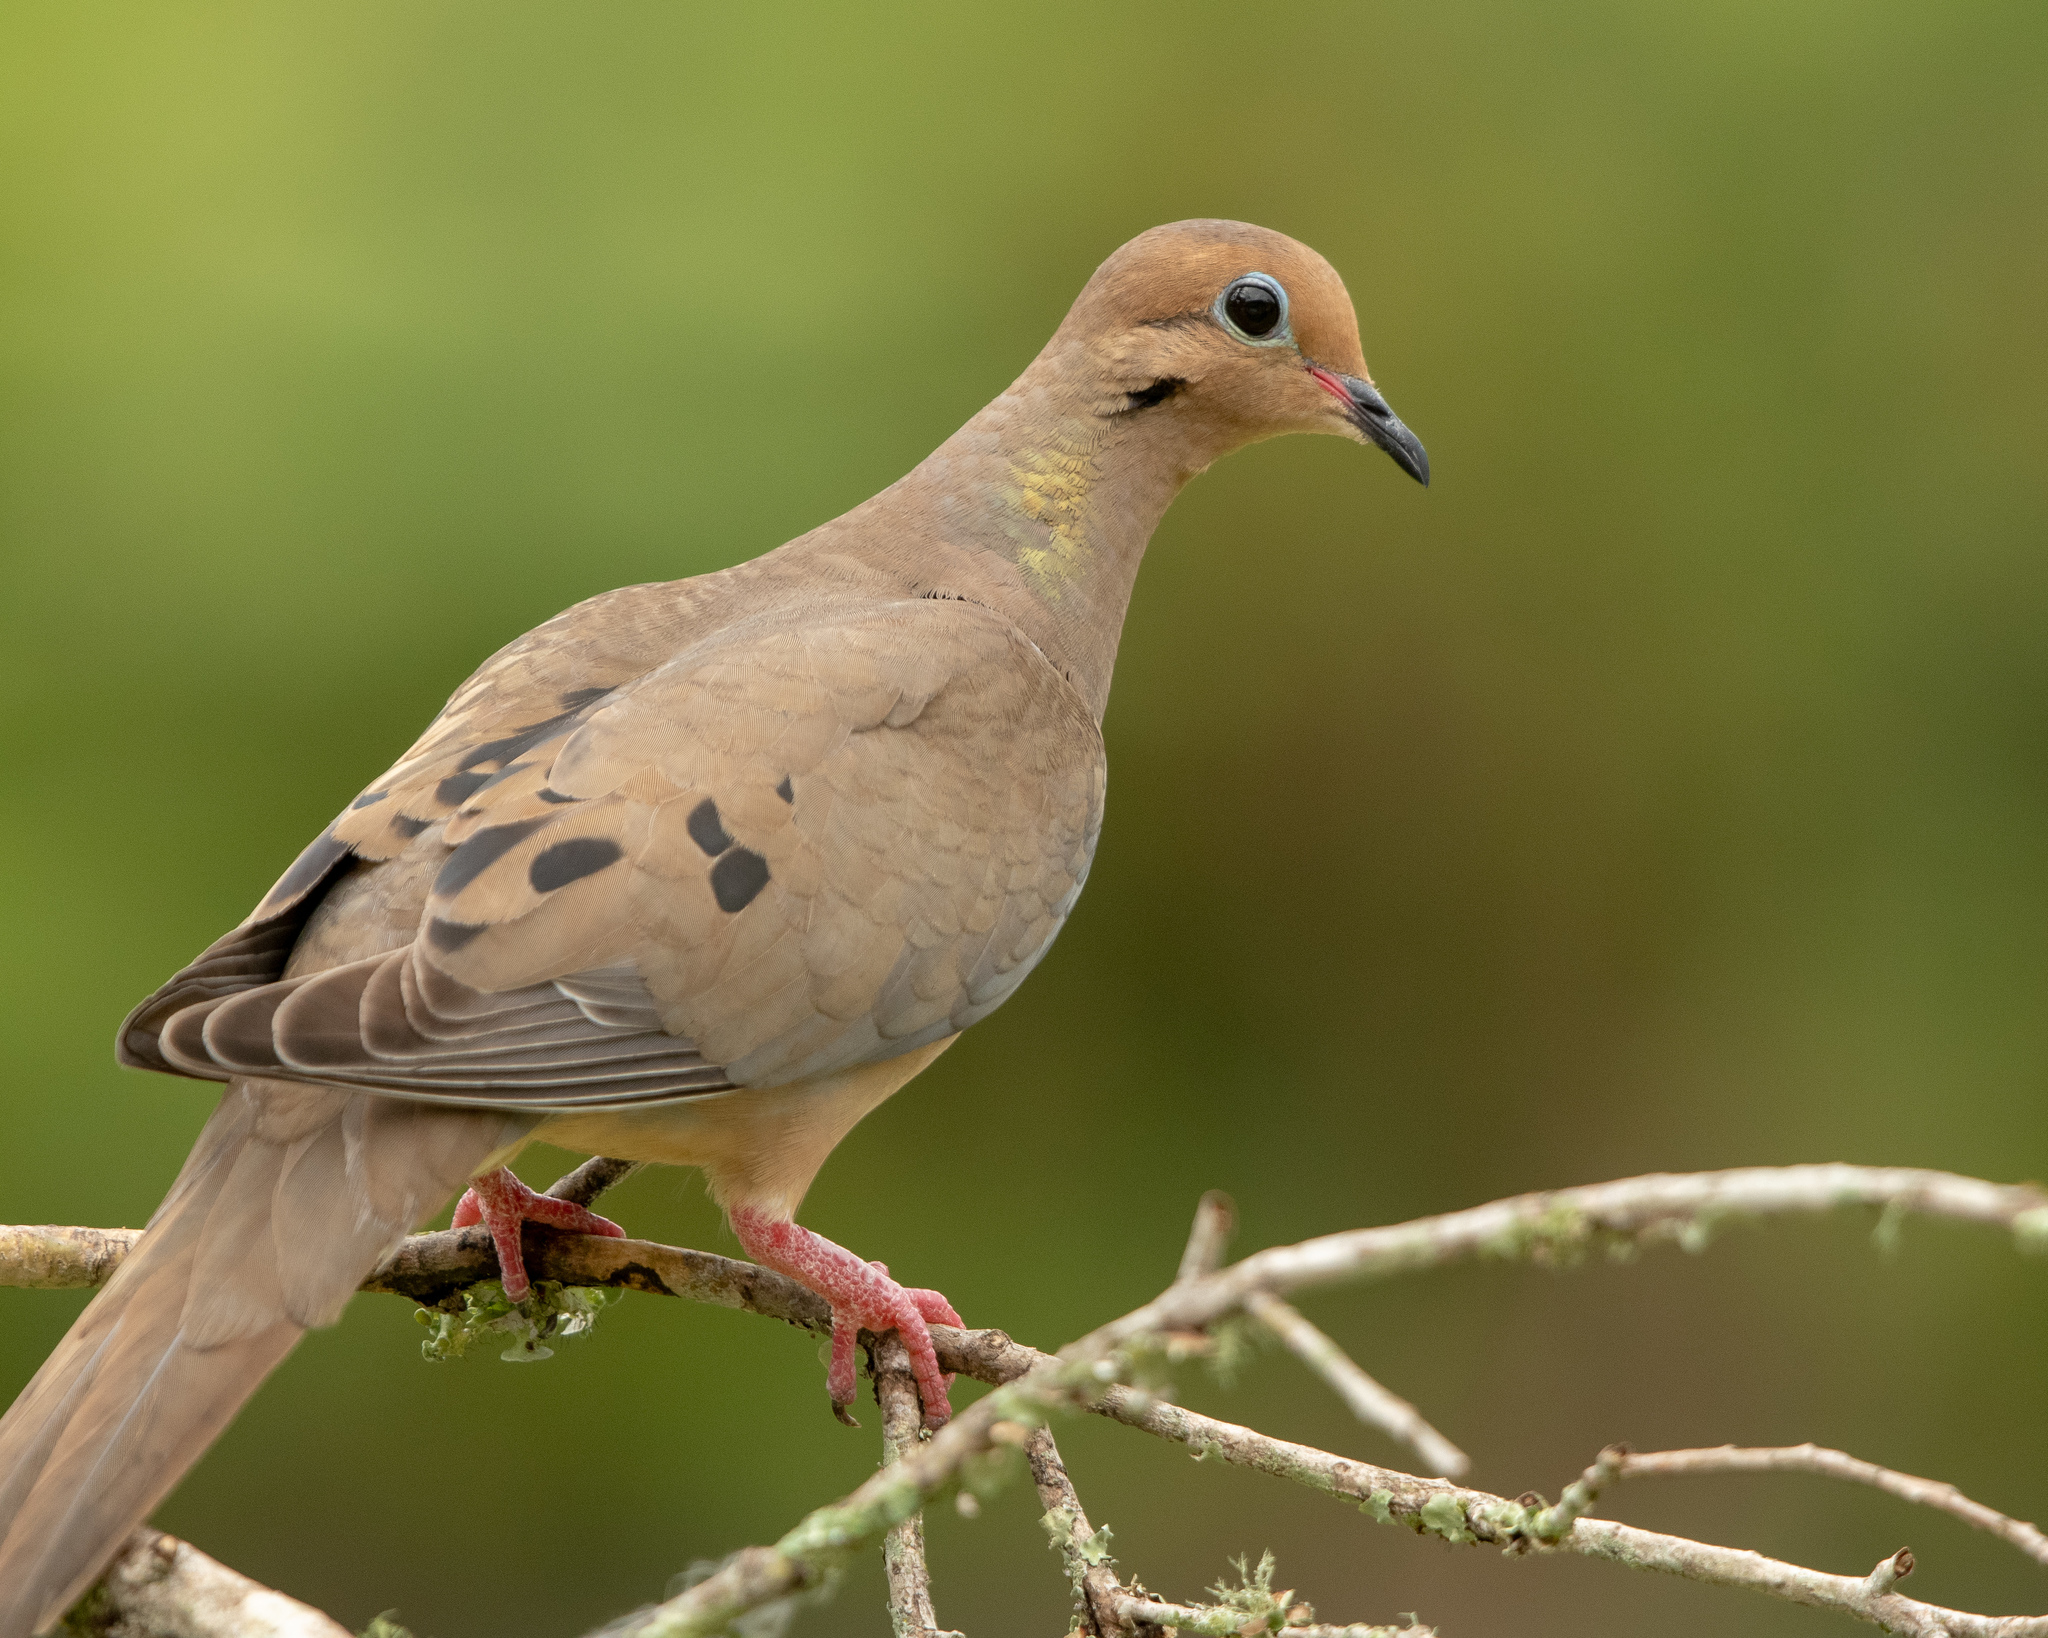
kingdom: Animalia
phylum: Chordata
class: Aves
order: Columbiformes
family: Columbidae
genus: Zenaida
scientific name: Zenaida macroura
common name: Mourning dove
